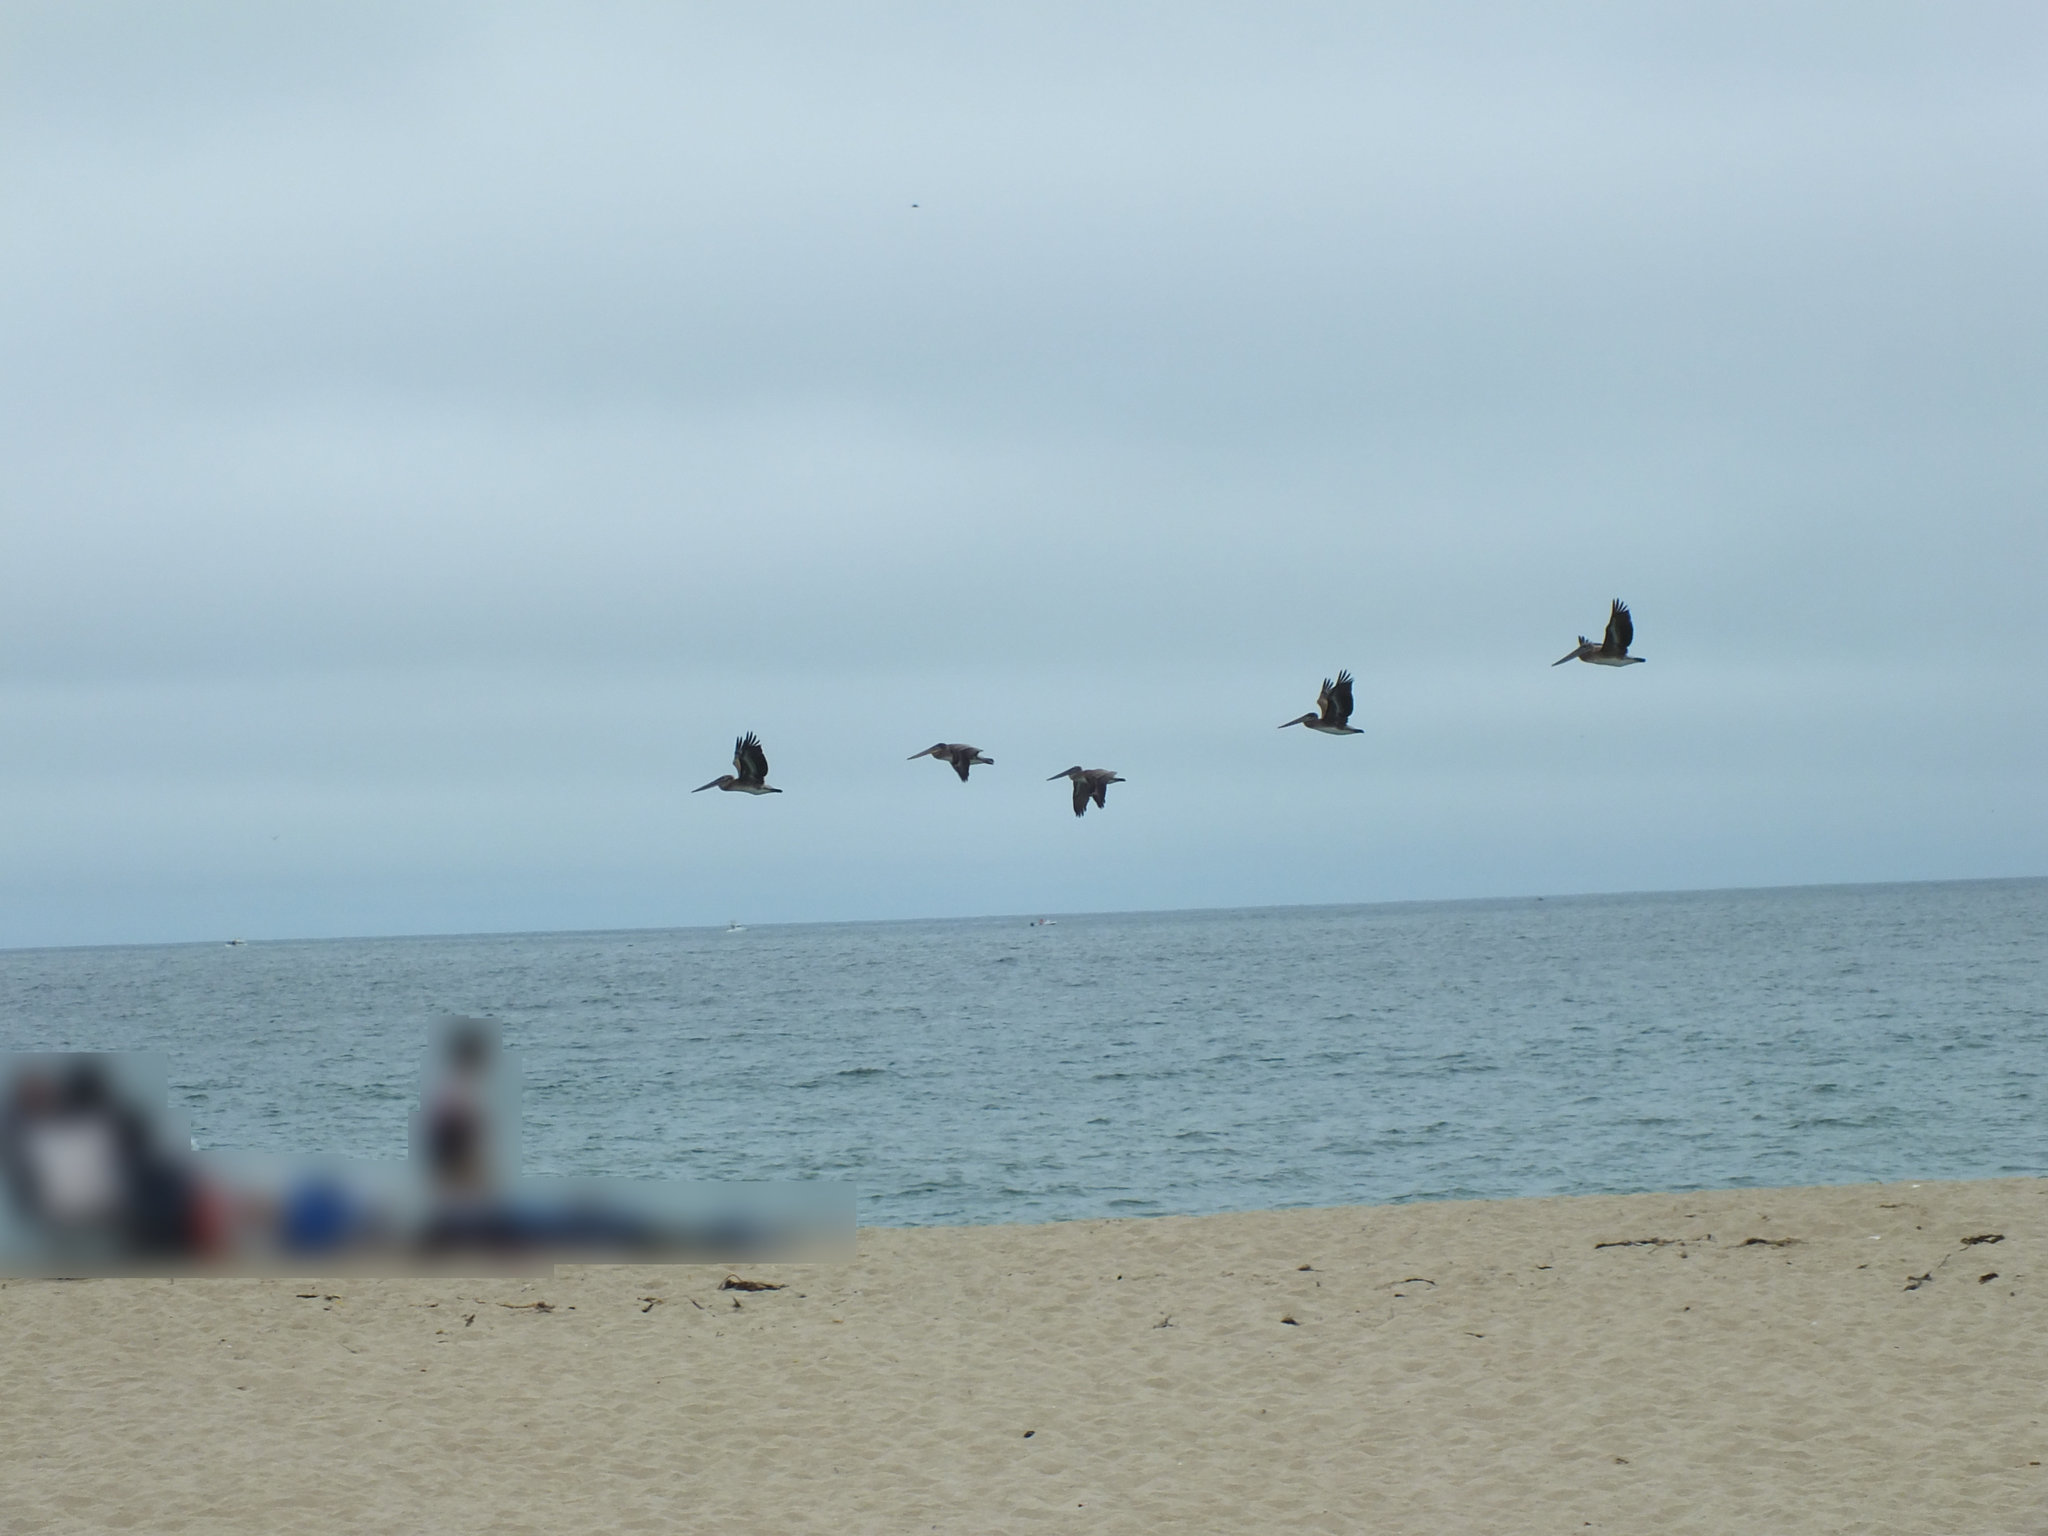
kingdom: Animalia
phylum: Chordata
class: Aves
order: Pelecaniformes
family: Pelecanidae
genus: Pelecanus
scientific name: Pelecanus occidentalis
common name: Brown pelican
